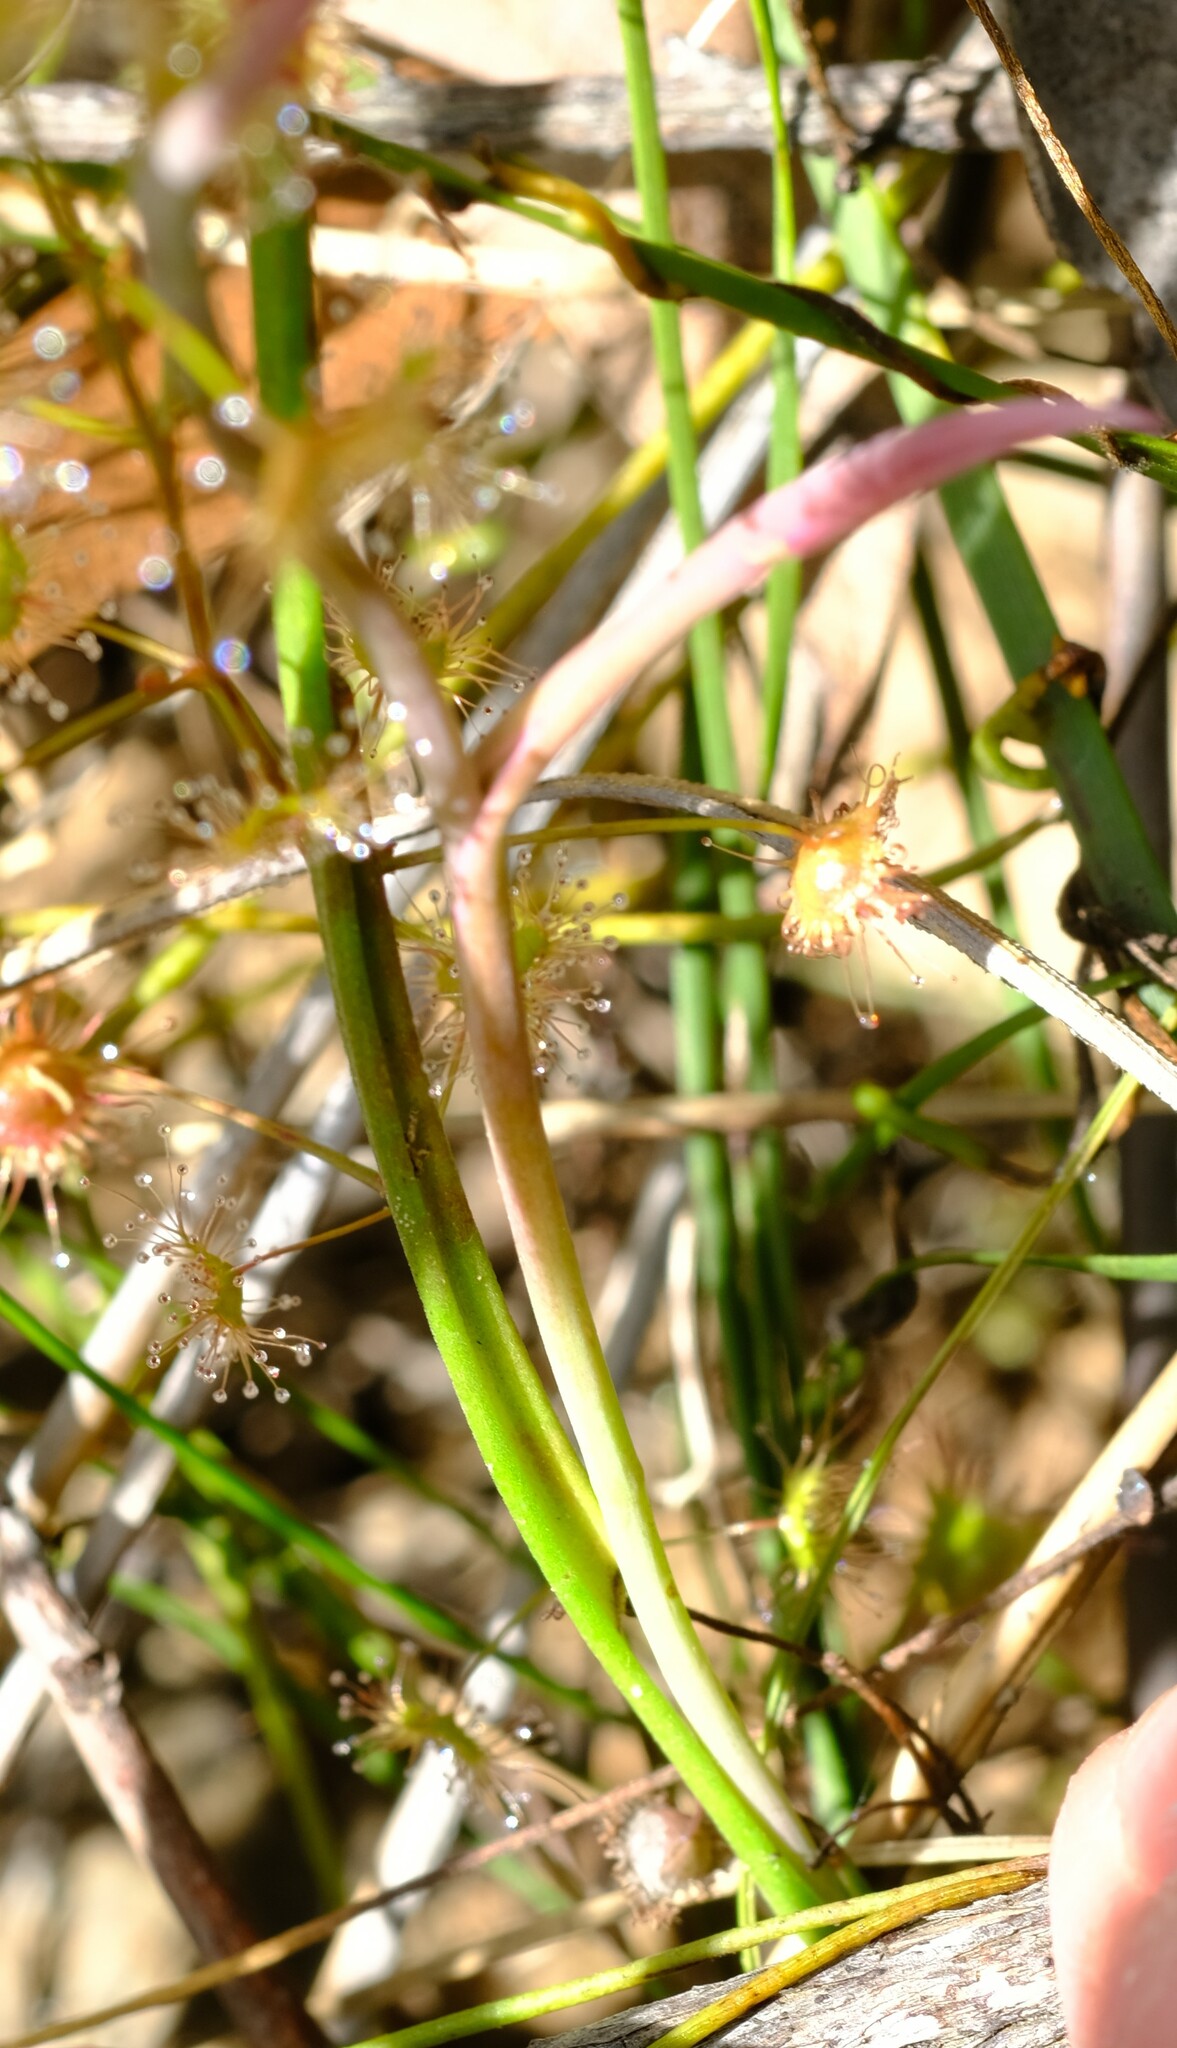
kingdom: Plantae
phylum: Tracheophyta
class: Liliopsida
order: Asparagales
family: Orchidaceae
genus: Thelymitra
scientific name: Thelymitra ixioides
